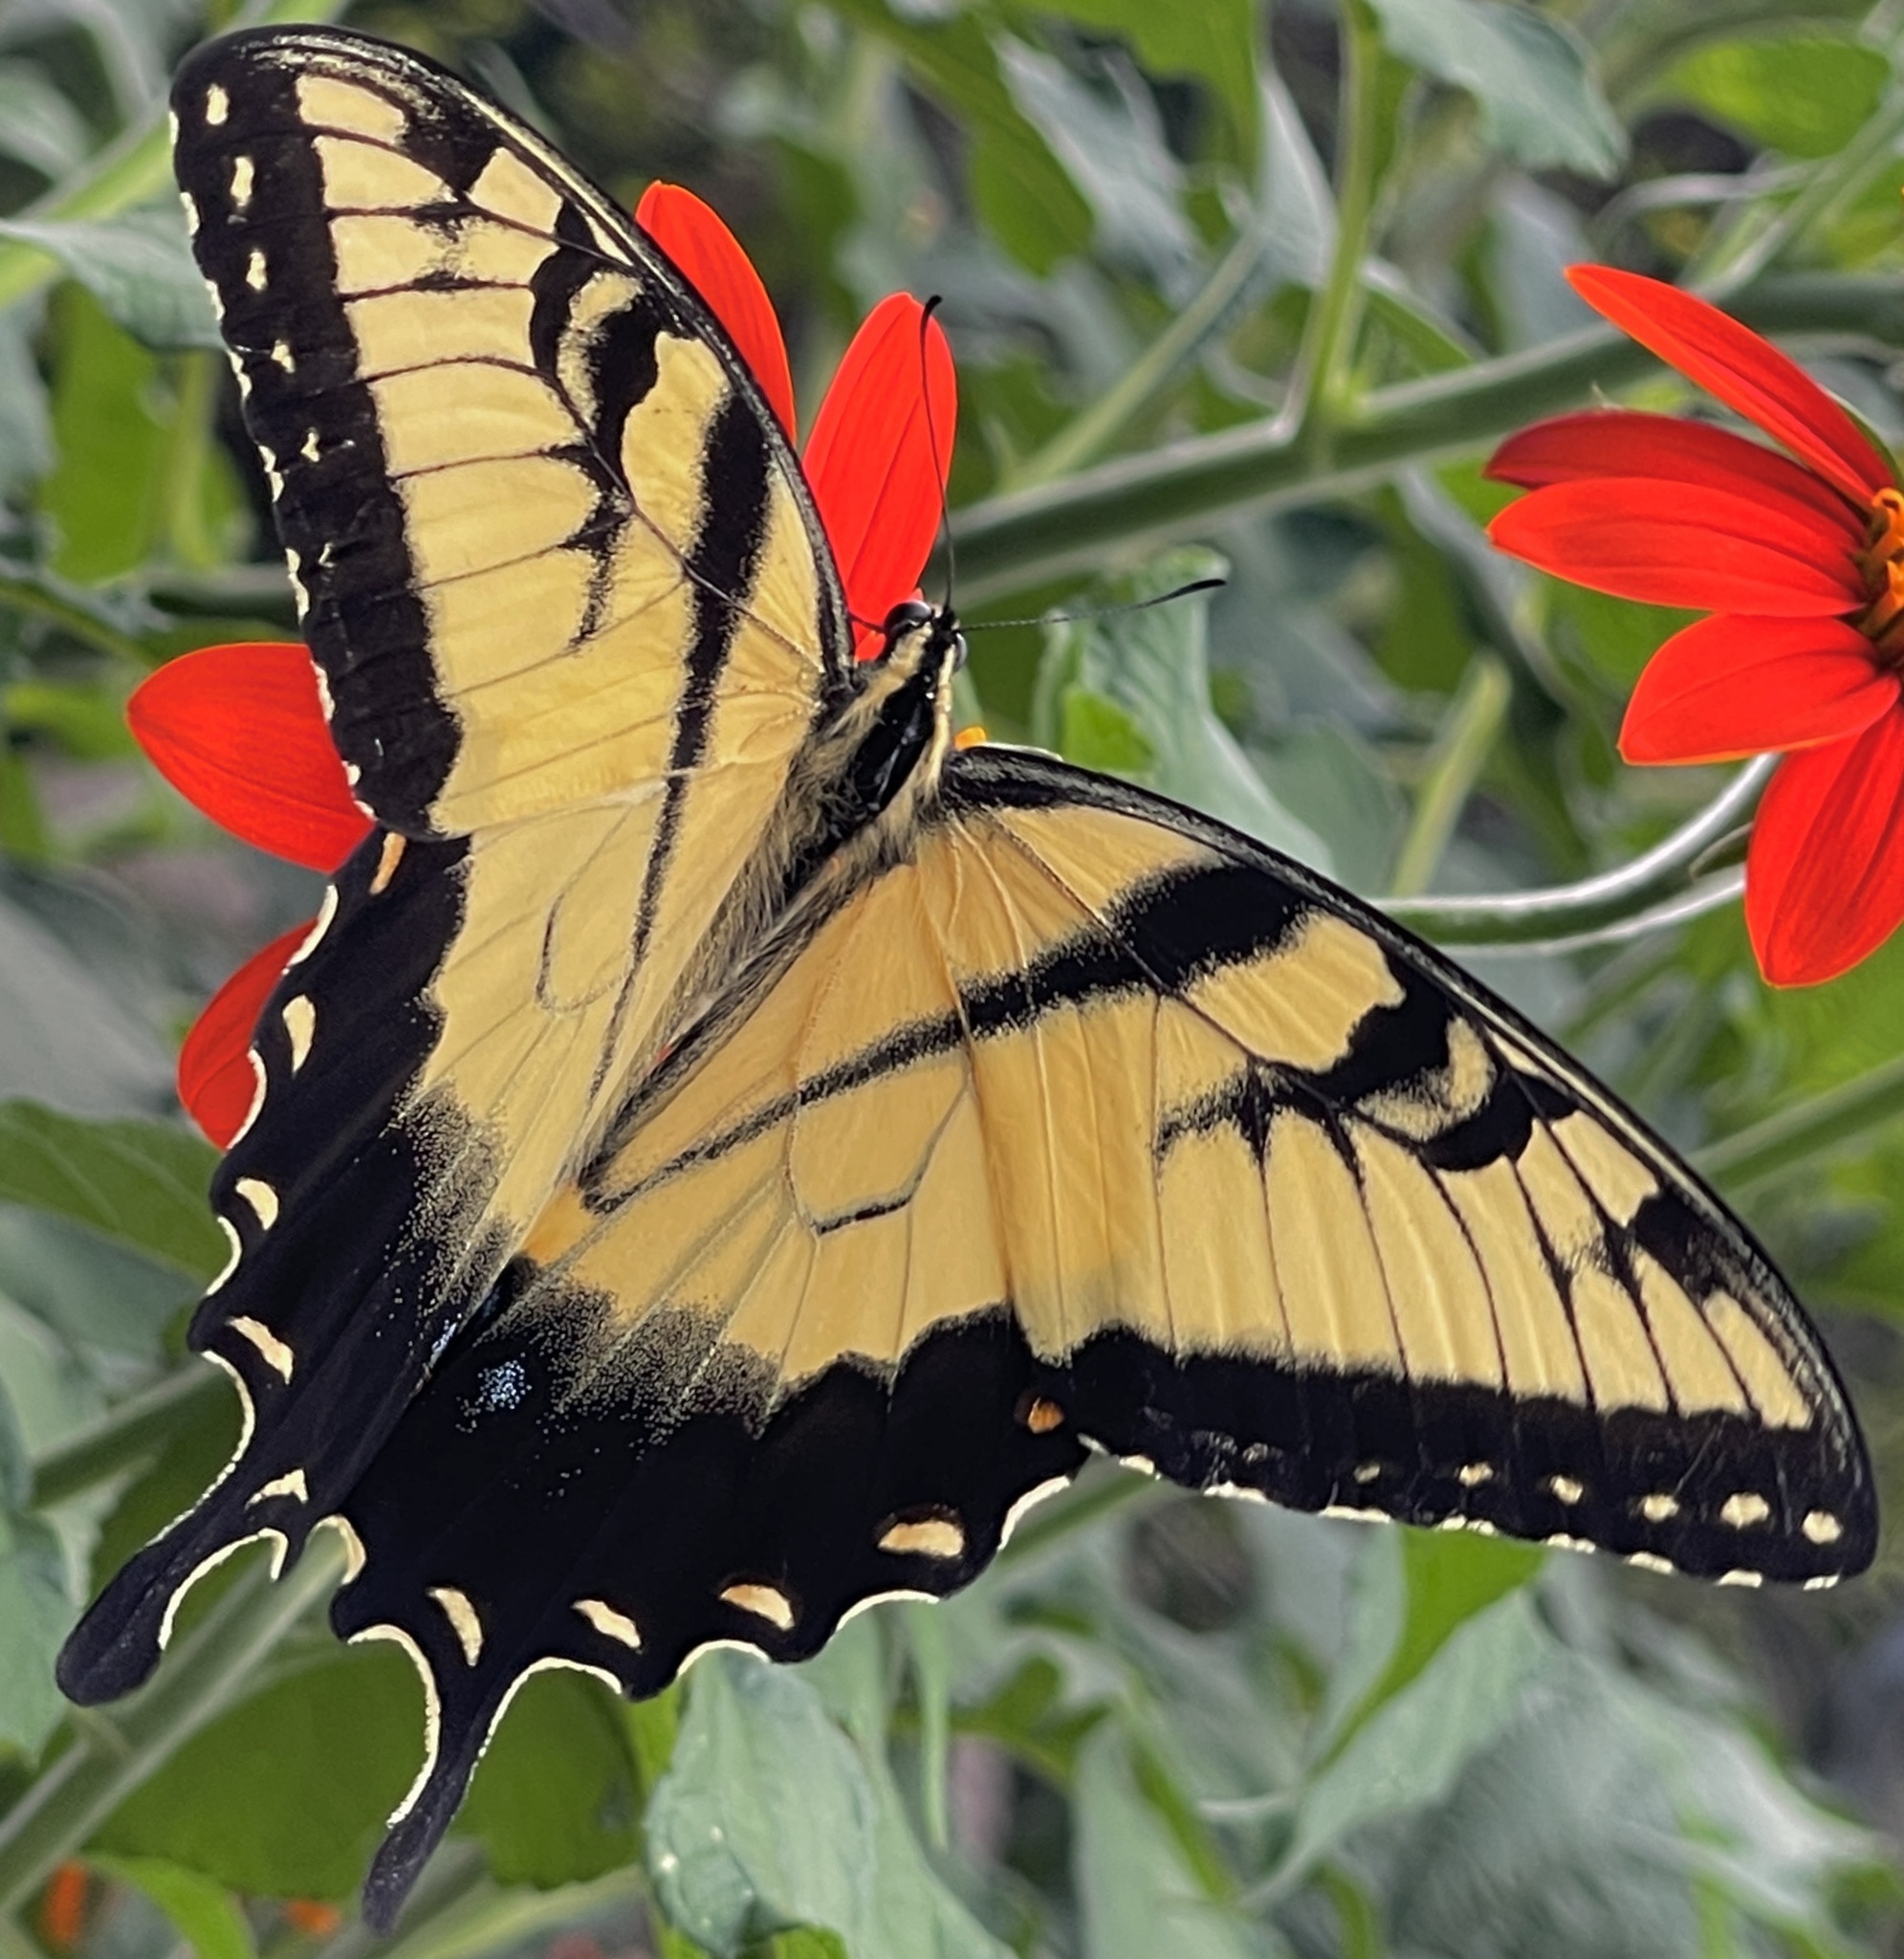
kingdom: Animalia
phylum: Arthropoda
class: Insecta
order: Lepidoptera
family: Papilionidae
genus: Papilio
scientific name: Papilio glaucus
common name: Tiger swallowtail
